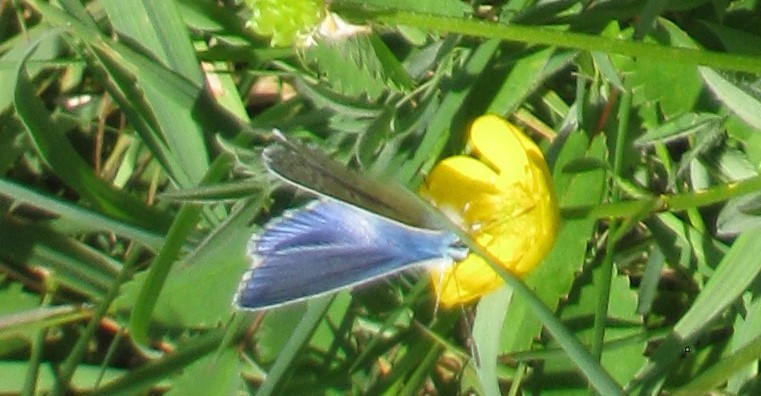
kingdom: Animalia
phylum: Arthropoda
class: Insecta
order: Lepidoptera
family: Lycaenidae
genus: Polyommatus
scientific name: Polyommatus icarus
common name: Common blue
